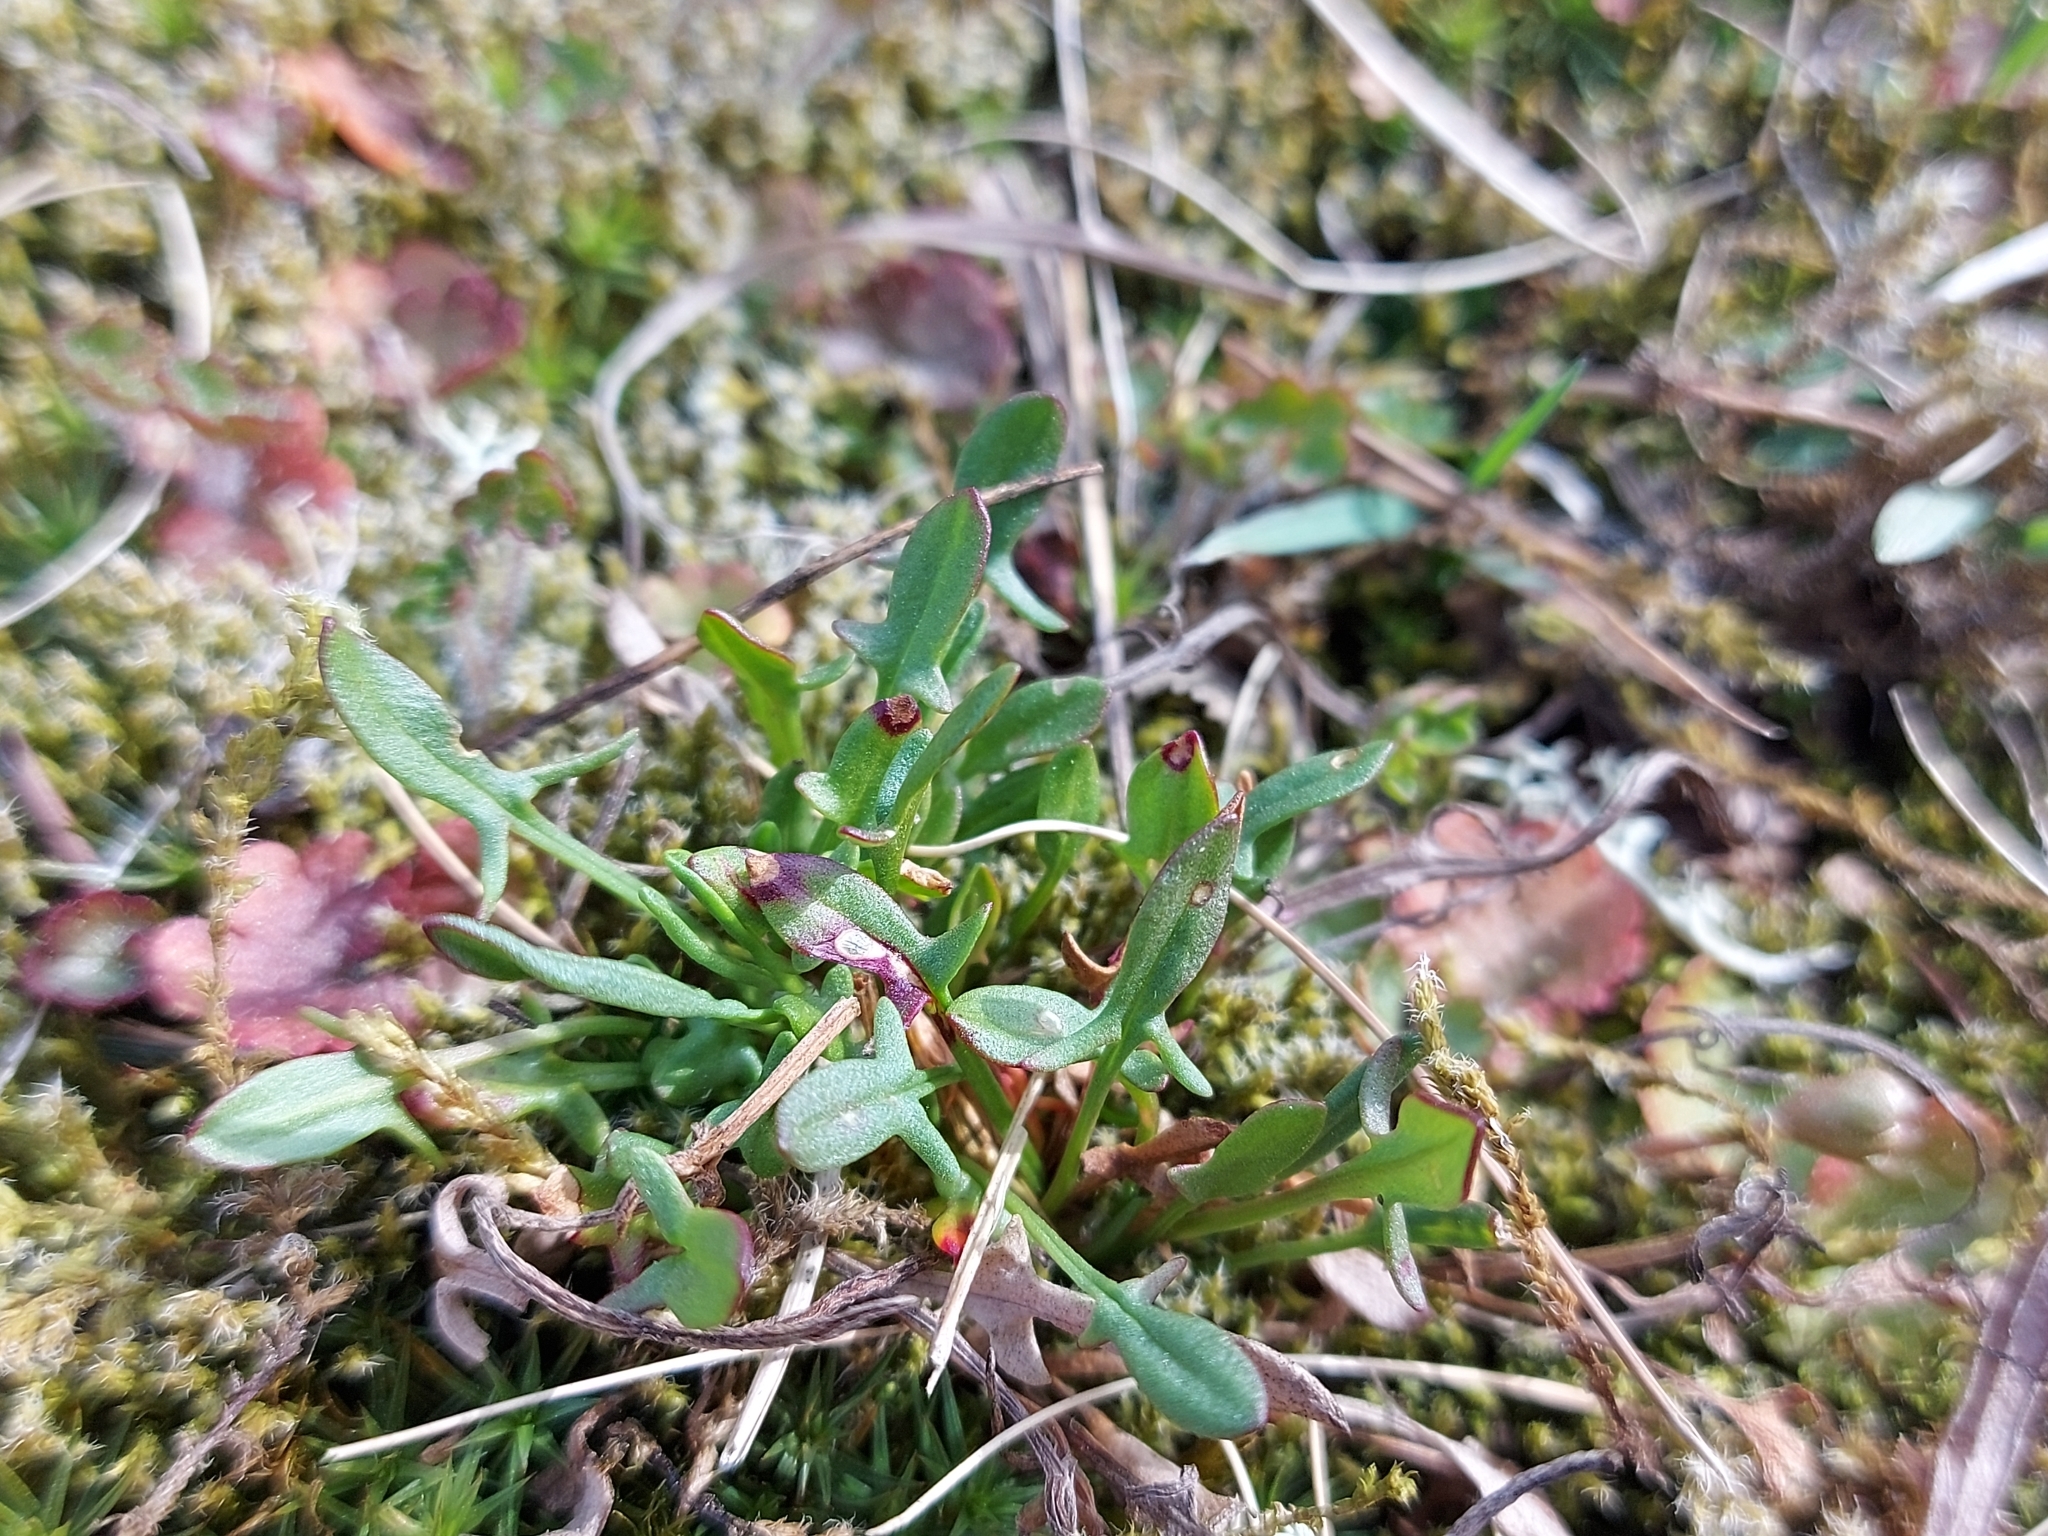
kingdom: Plantae
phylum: Tracheophyta
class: Magnoliopsida
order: Caryophyllales
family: Polygonaceae
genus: Rumex
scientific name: Rumex acetosella
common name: Common sheep sorrel
